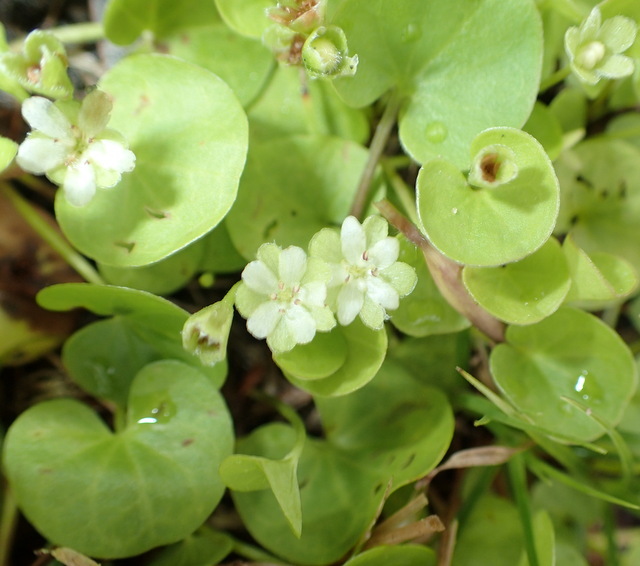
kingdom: Plantae
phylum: Tracheophyta
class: Magnoliopsida
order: Solanales
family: Convolvulaceae
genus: Dichondra
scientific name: Dichondra carolinensis
